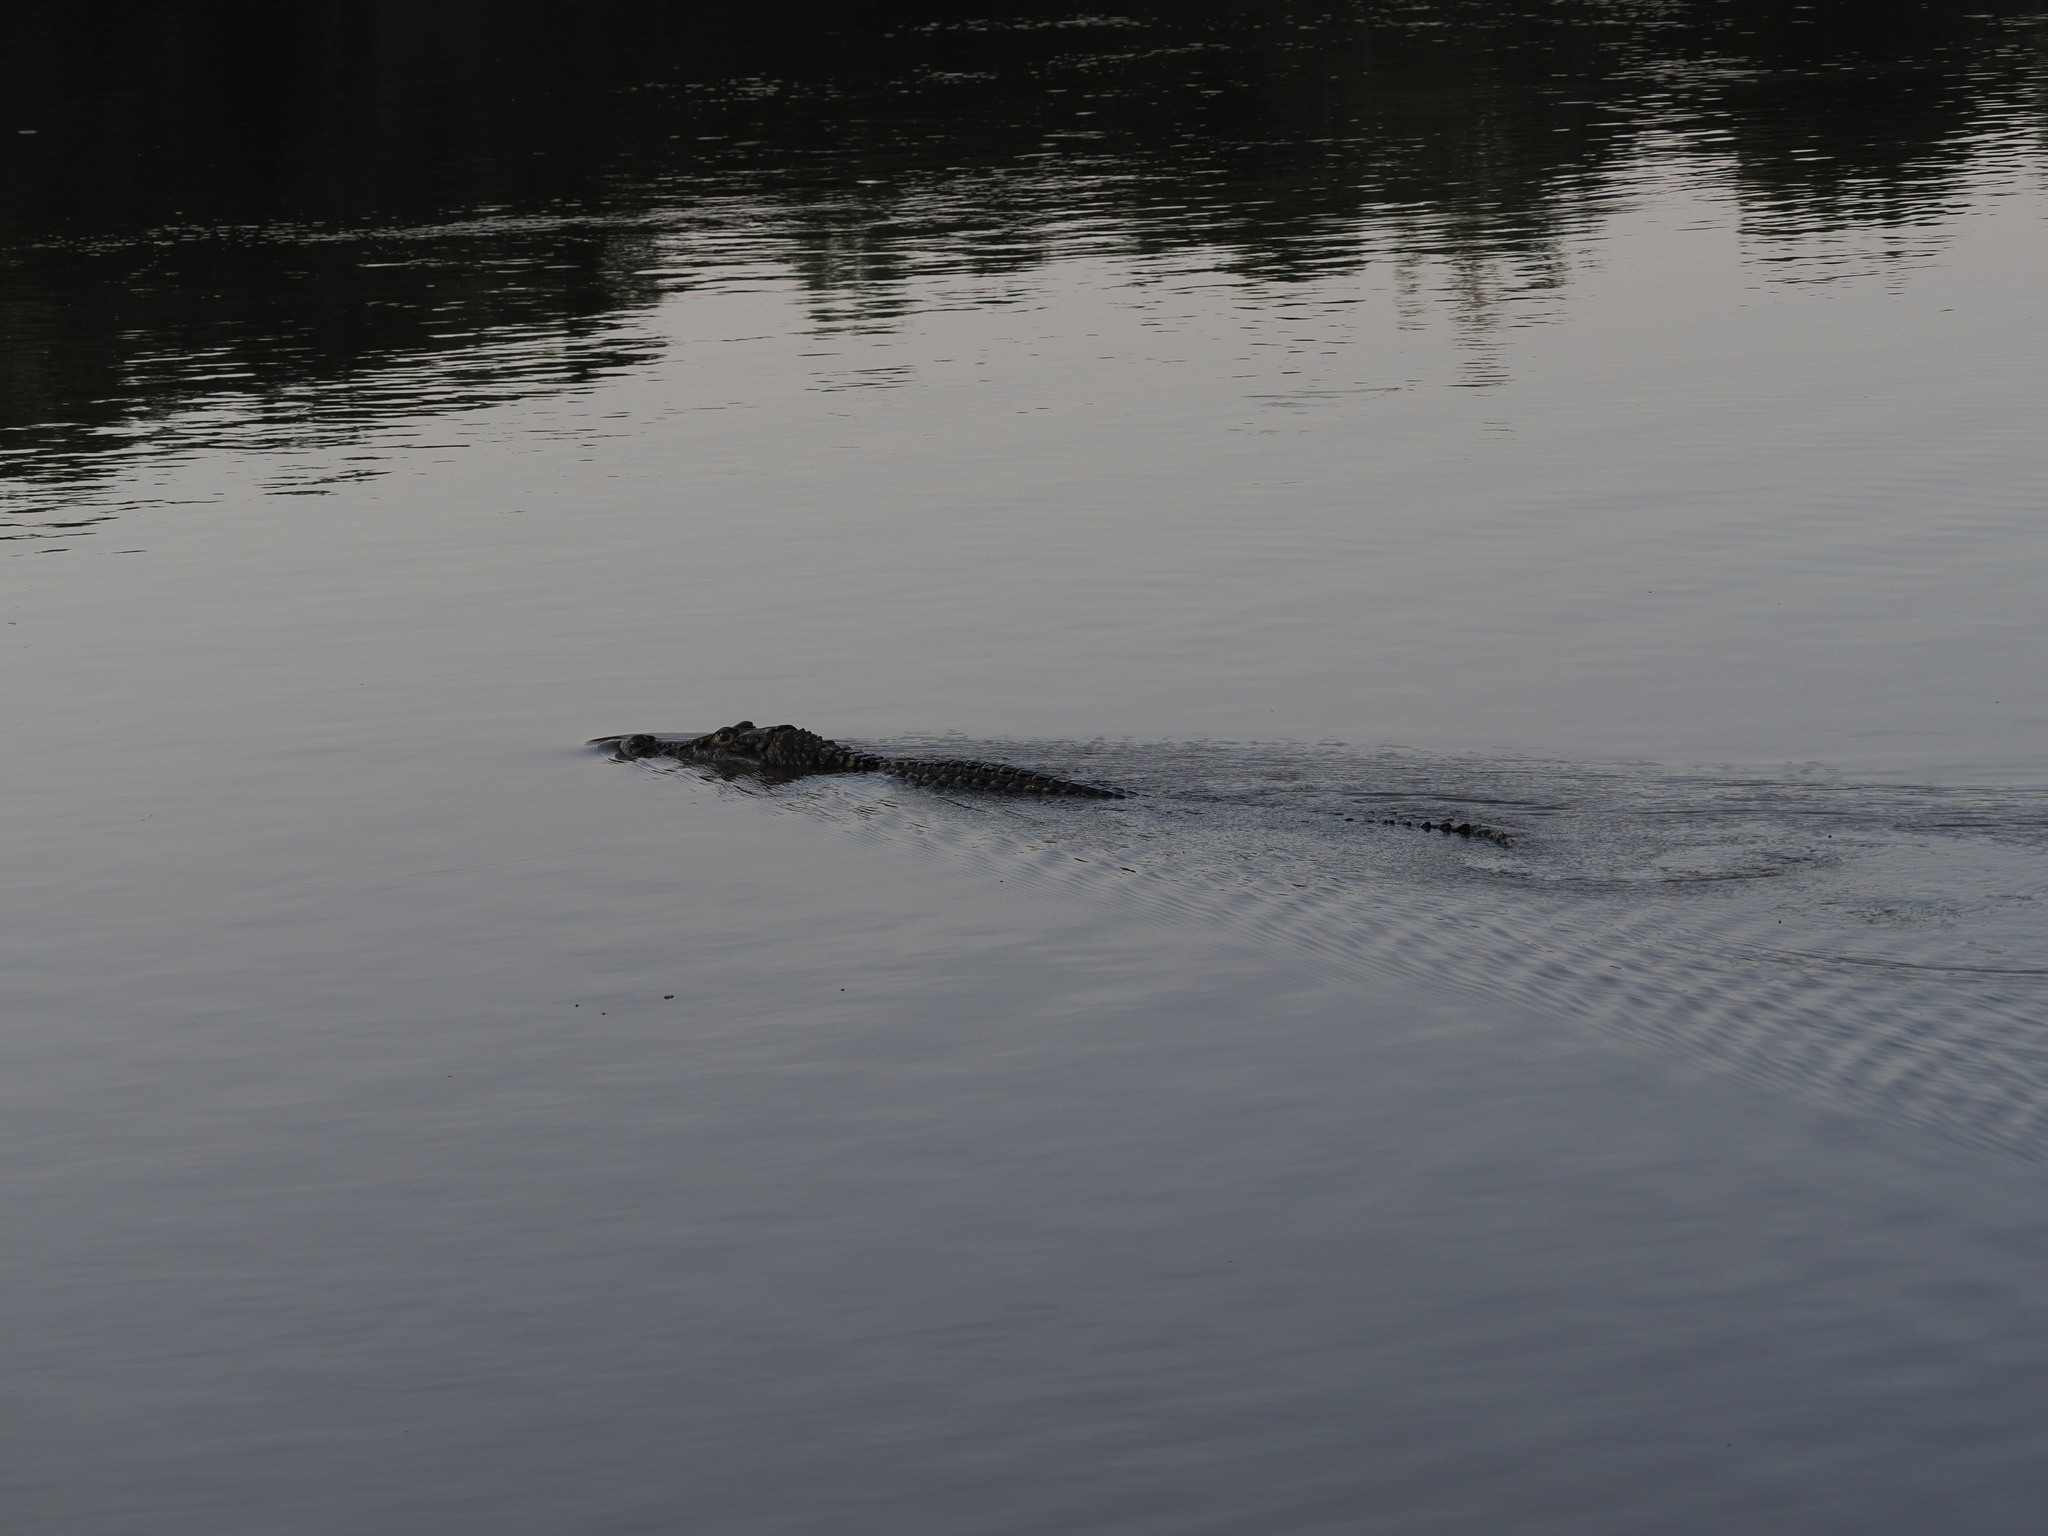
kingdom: Animalia
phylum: Chordata
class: Crocodylia
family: Alligatoridae
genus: Melanosuchus
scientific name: Melanosuchus niger
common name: Black caiman
